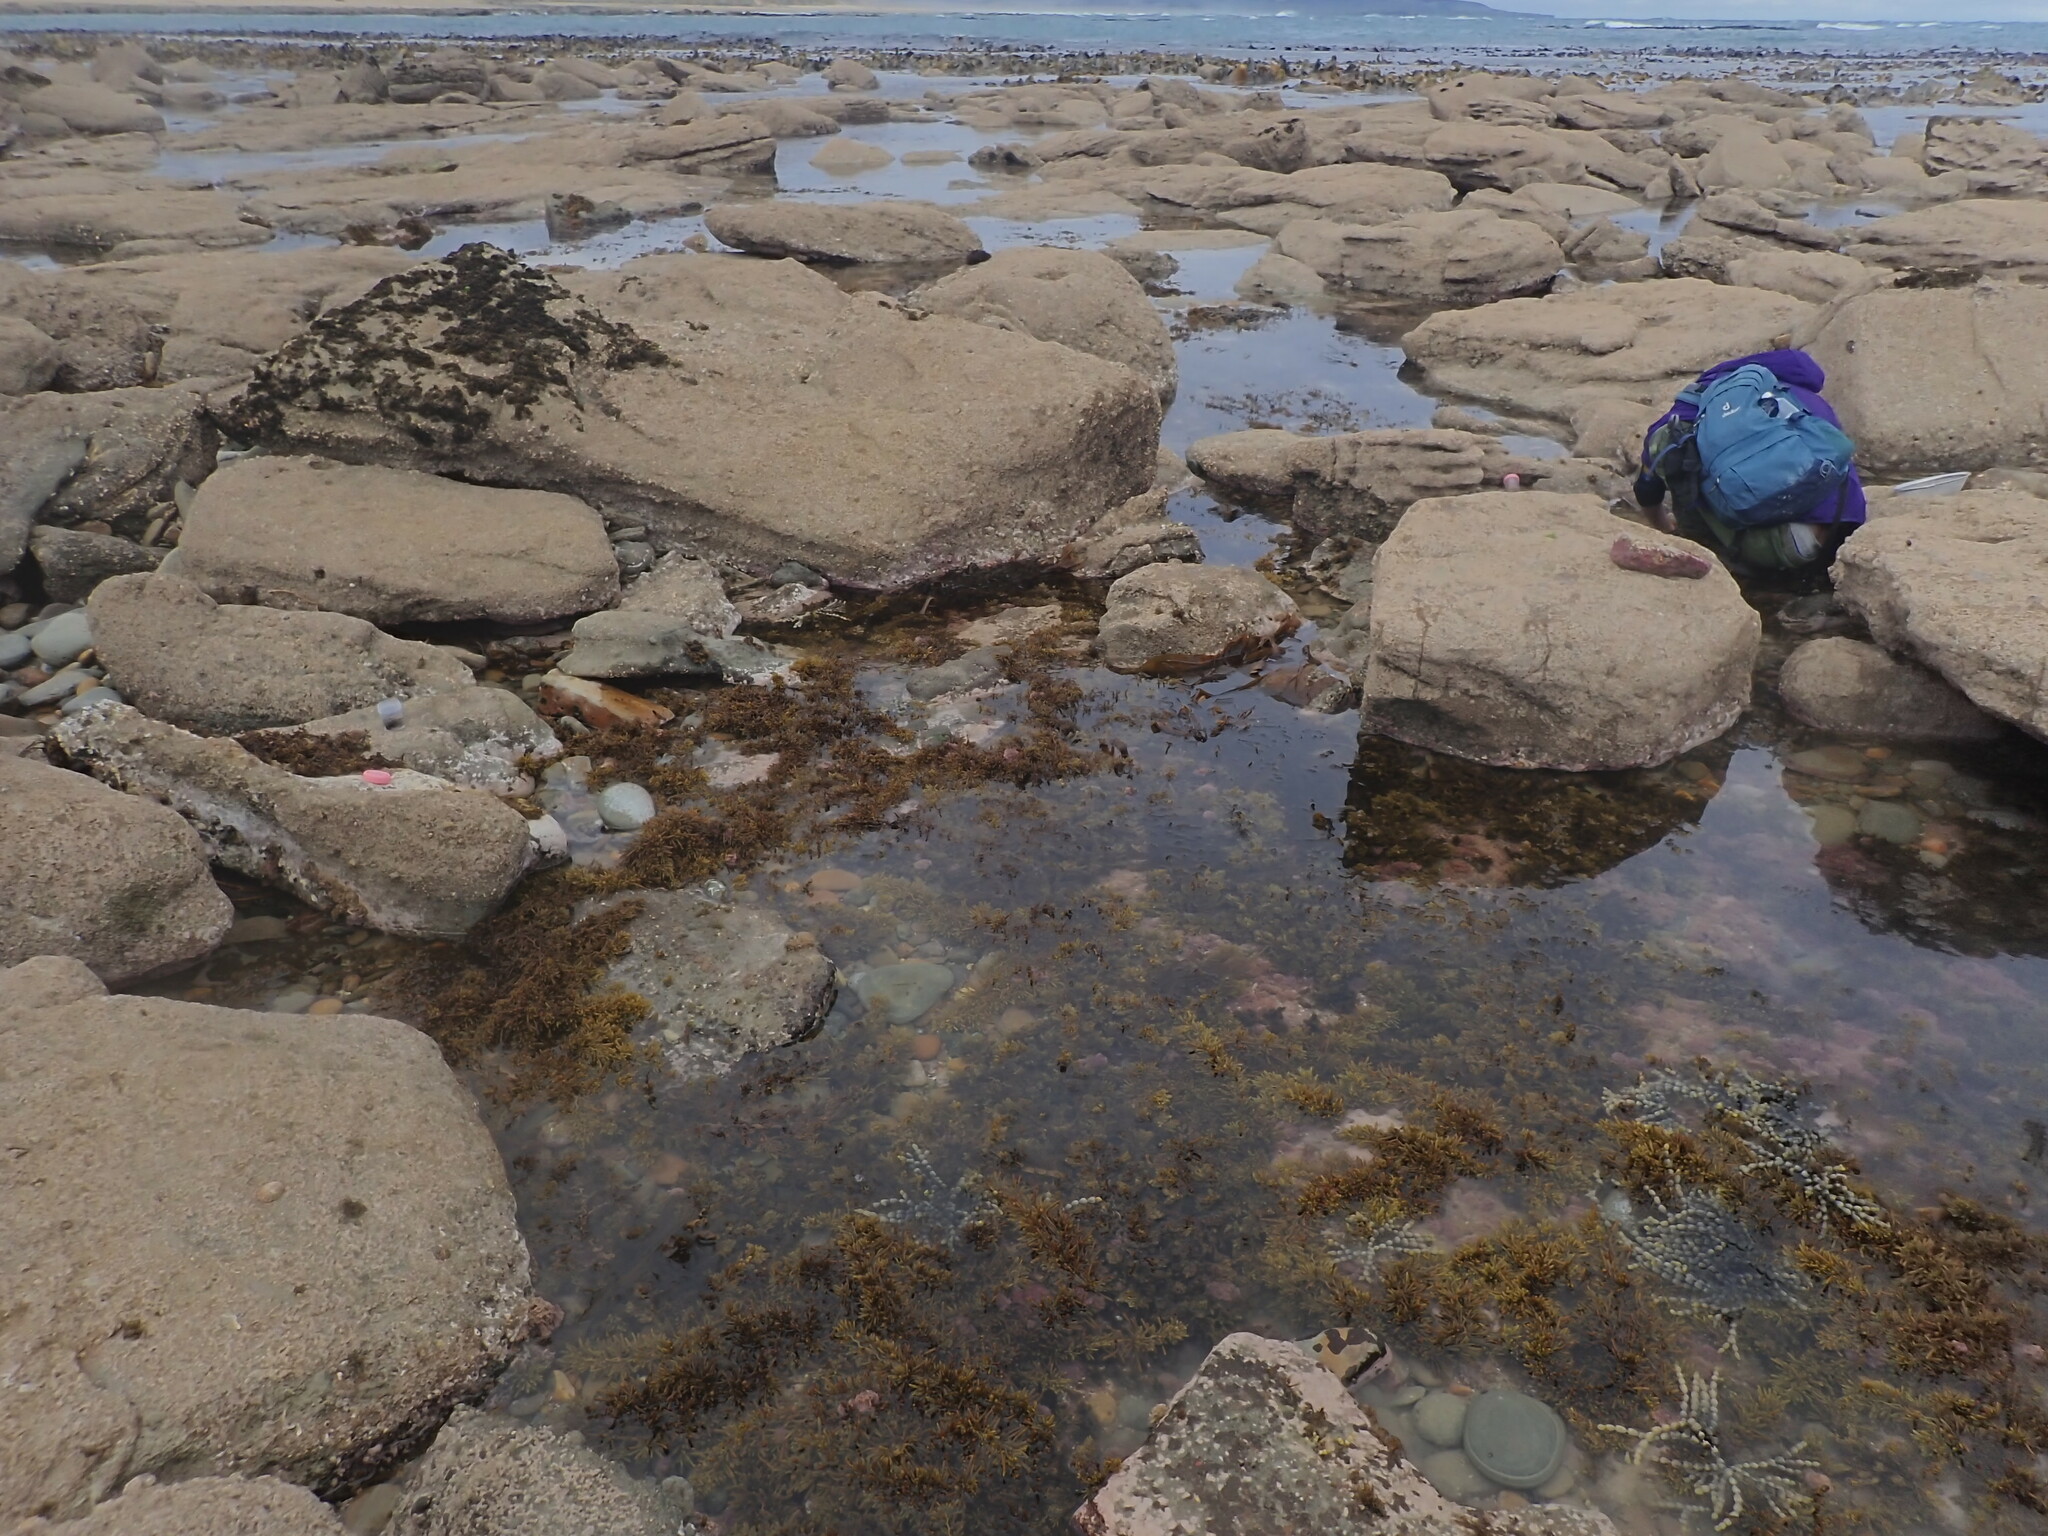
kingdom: Animalia
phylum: Mollusca
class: Gastropoda
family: Lottiidae
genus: Atalacmea
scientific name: Atalacmea multilinea
